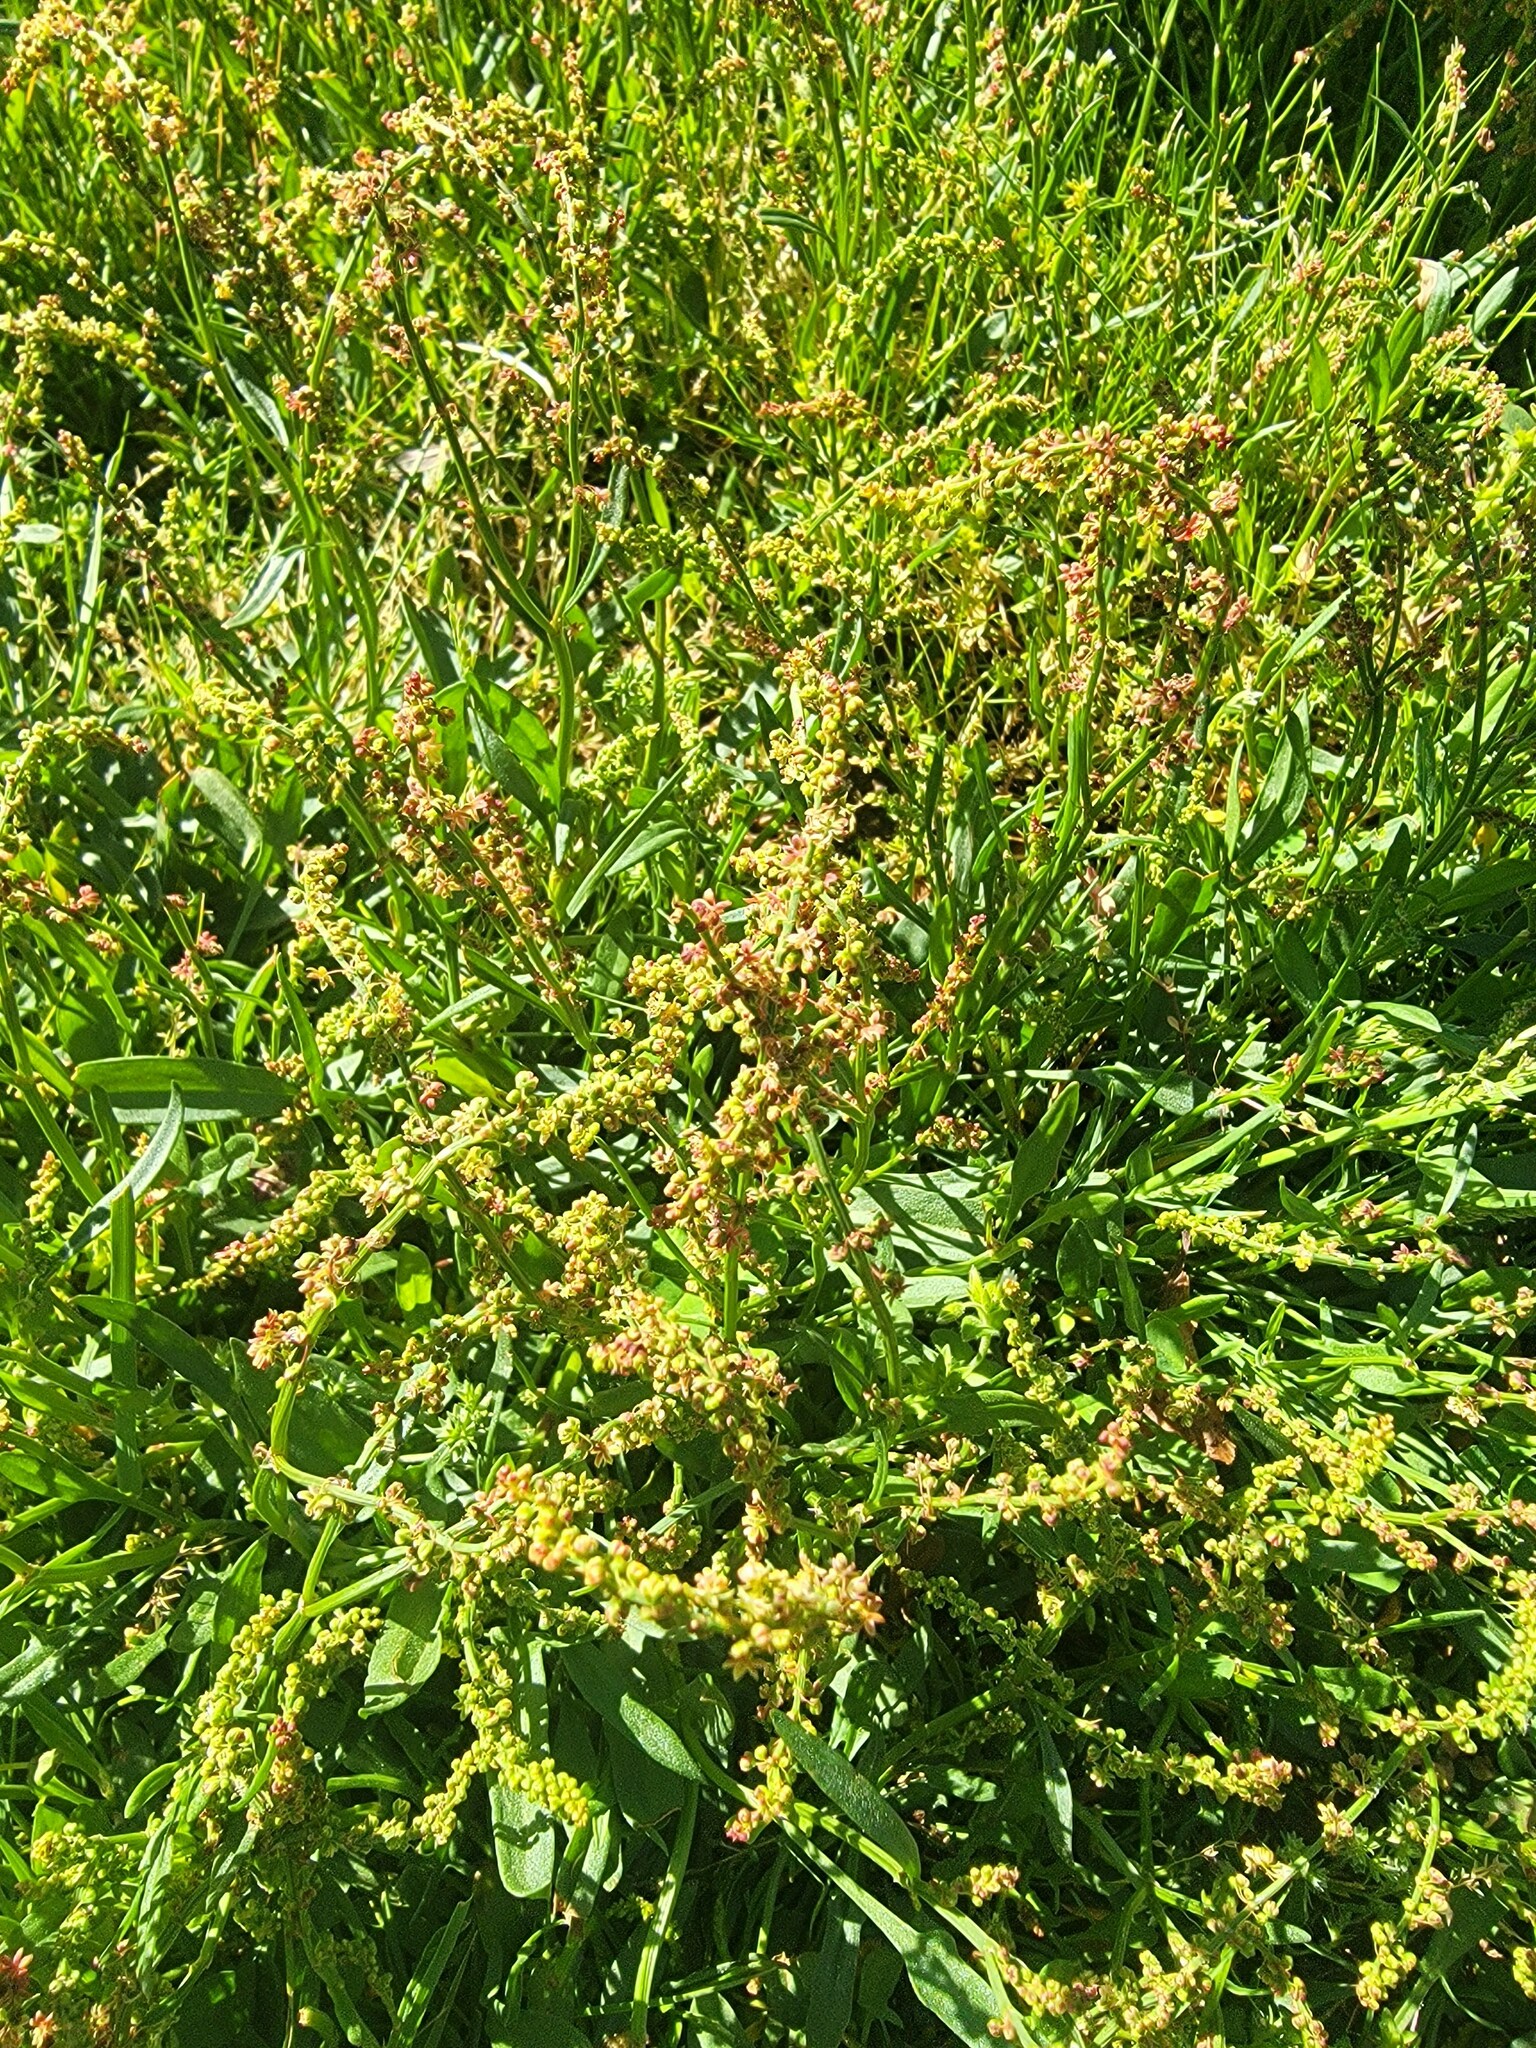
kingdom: Plantae
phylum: Tracheophyta
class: Magnoliopsida
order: Caryophyllales
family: Polygonaceae
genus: Rumex
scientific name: Rumex acetosella
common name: Common sheep sorrel
